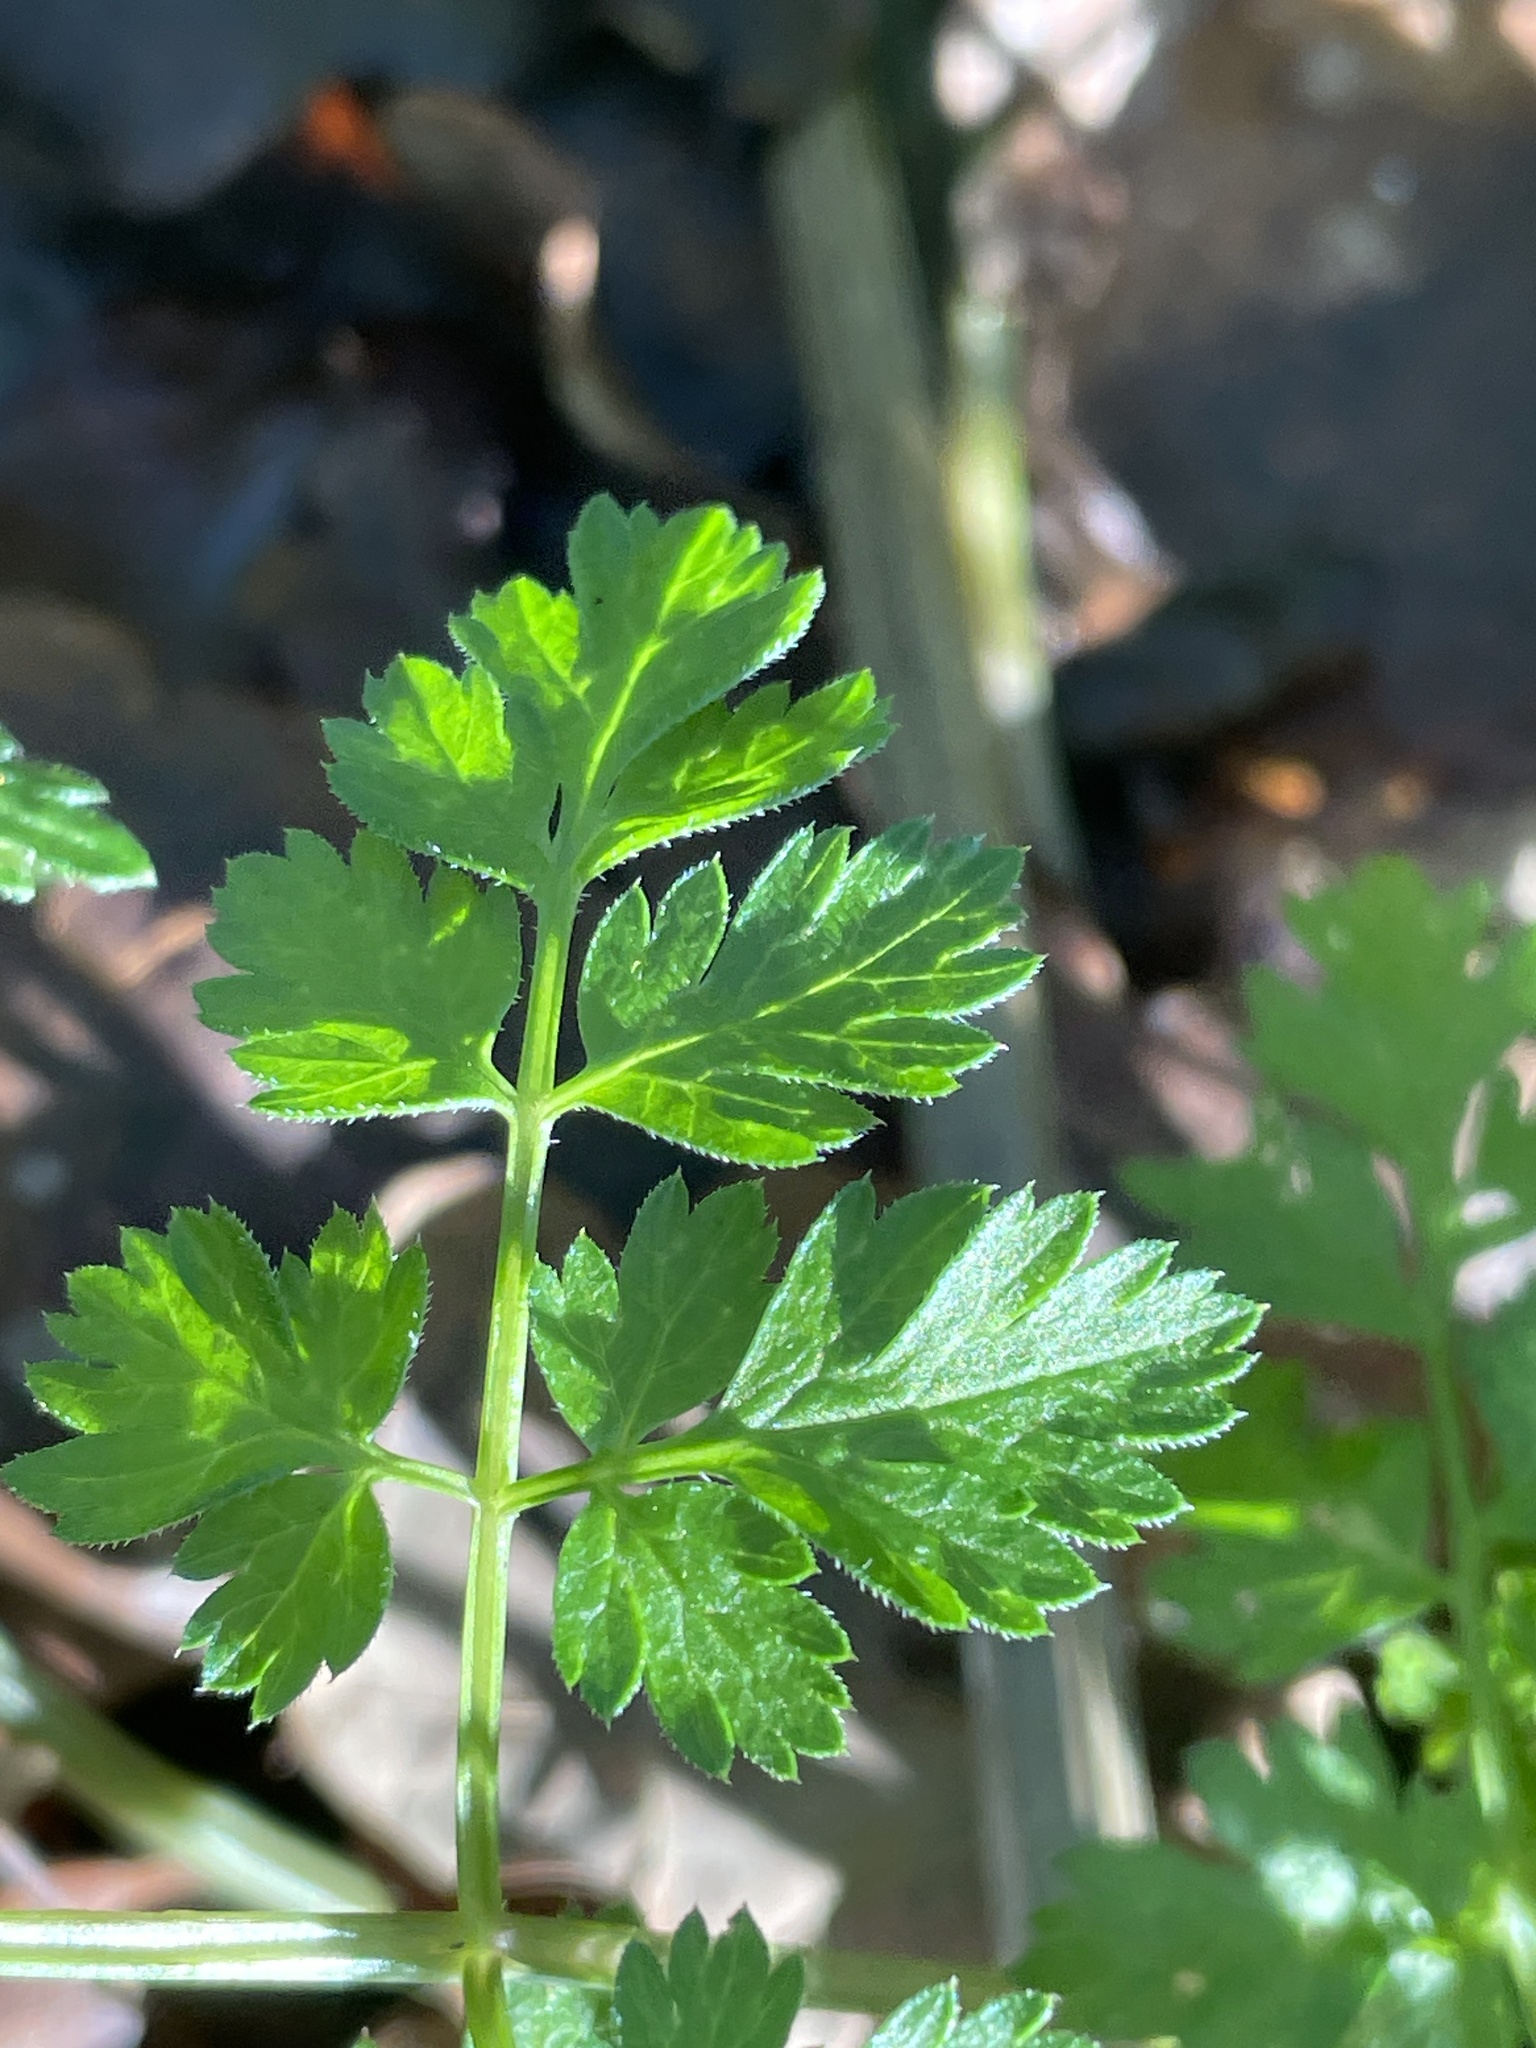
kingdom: Plantae
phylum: Tracheophyta
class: Magnoliopsida
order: Apiales
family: Apiaceae
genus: Anthriscus
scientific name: Anthriscus sylvestris
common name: Cow parsley
